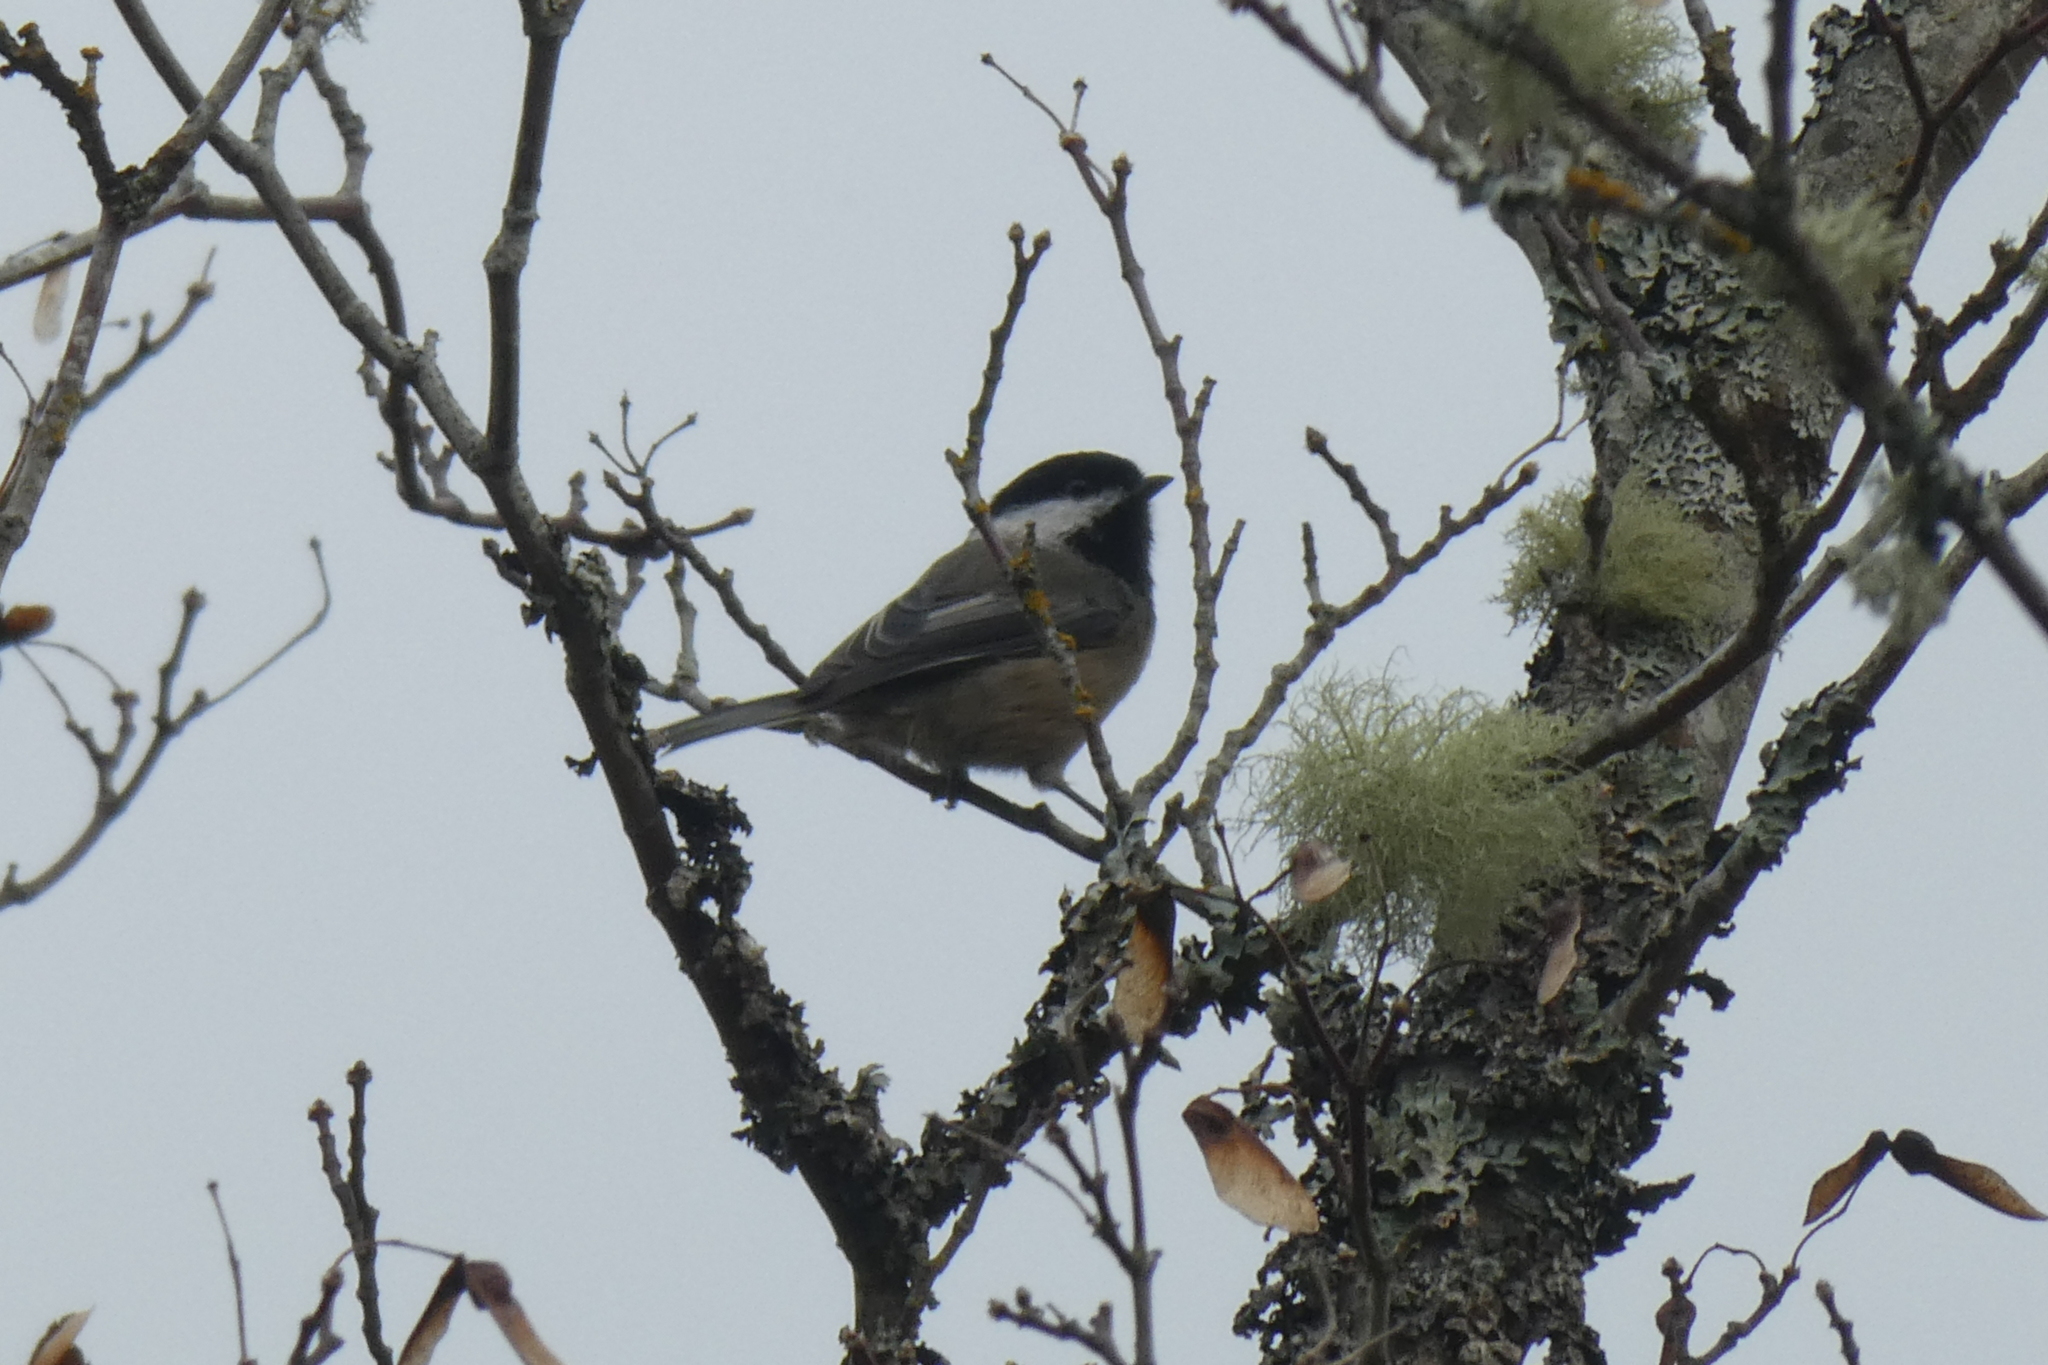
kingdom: Animalia
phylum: Chordata
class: Aves
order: Passeriformes
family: Paridae
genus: Poecile
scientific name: Poecile atricapillus
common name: Black-capped chickadee
